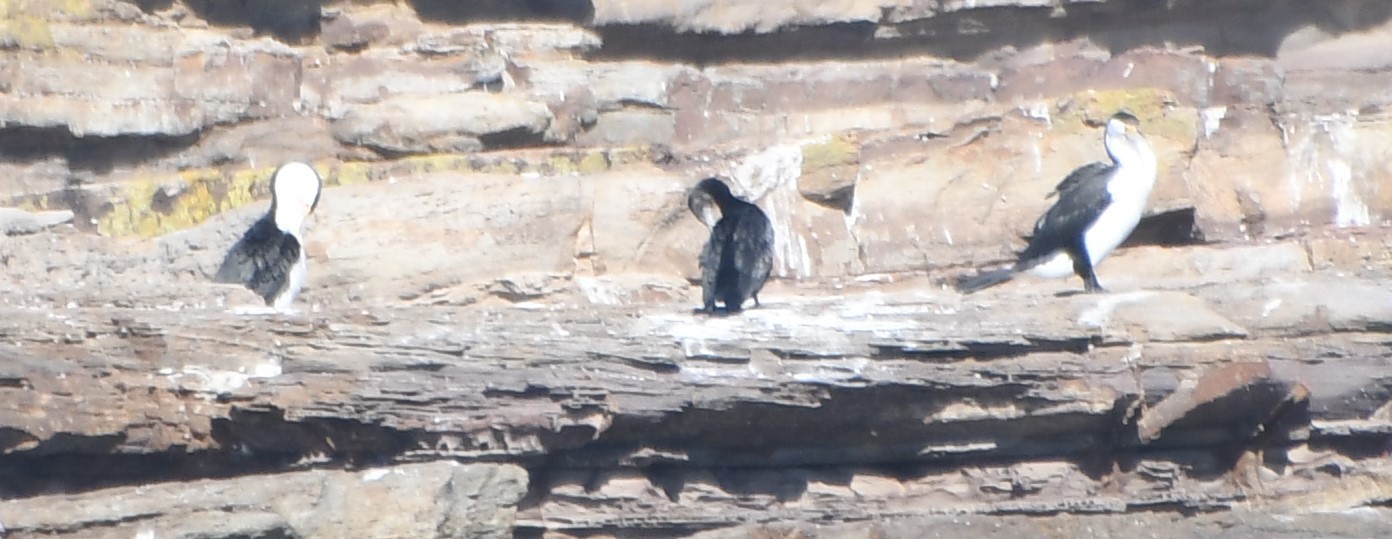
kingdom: Animalia
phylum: Chordata
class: Aves
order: Suliformes
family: Phalacrocoracidae
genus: Phalacrocorax
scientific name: Phalacrocorax varius
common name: Pied cormorant
